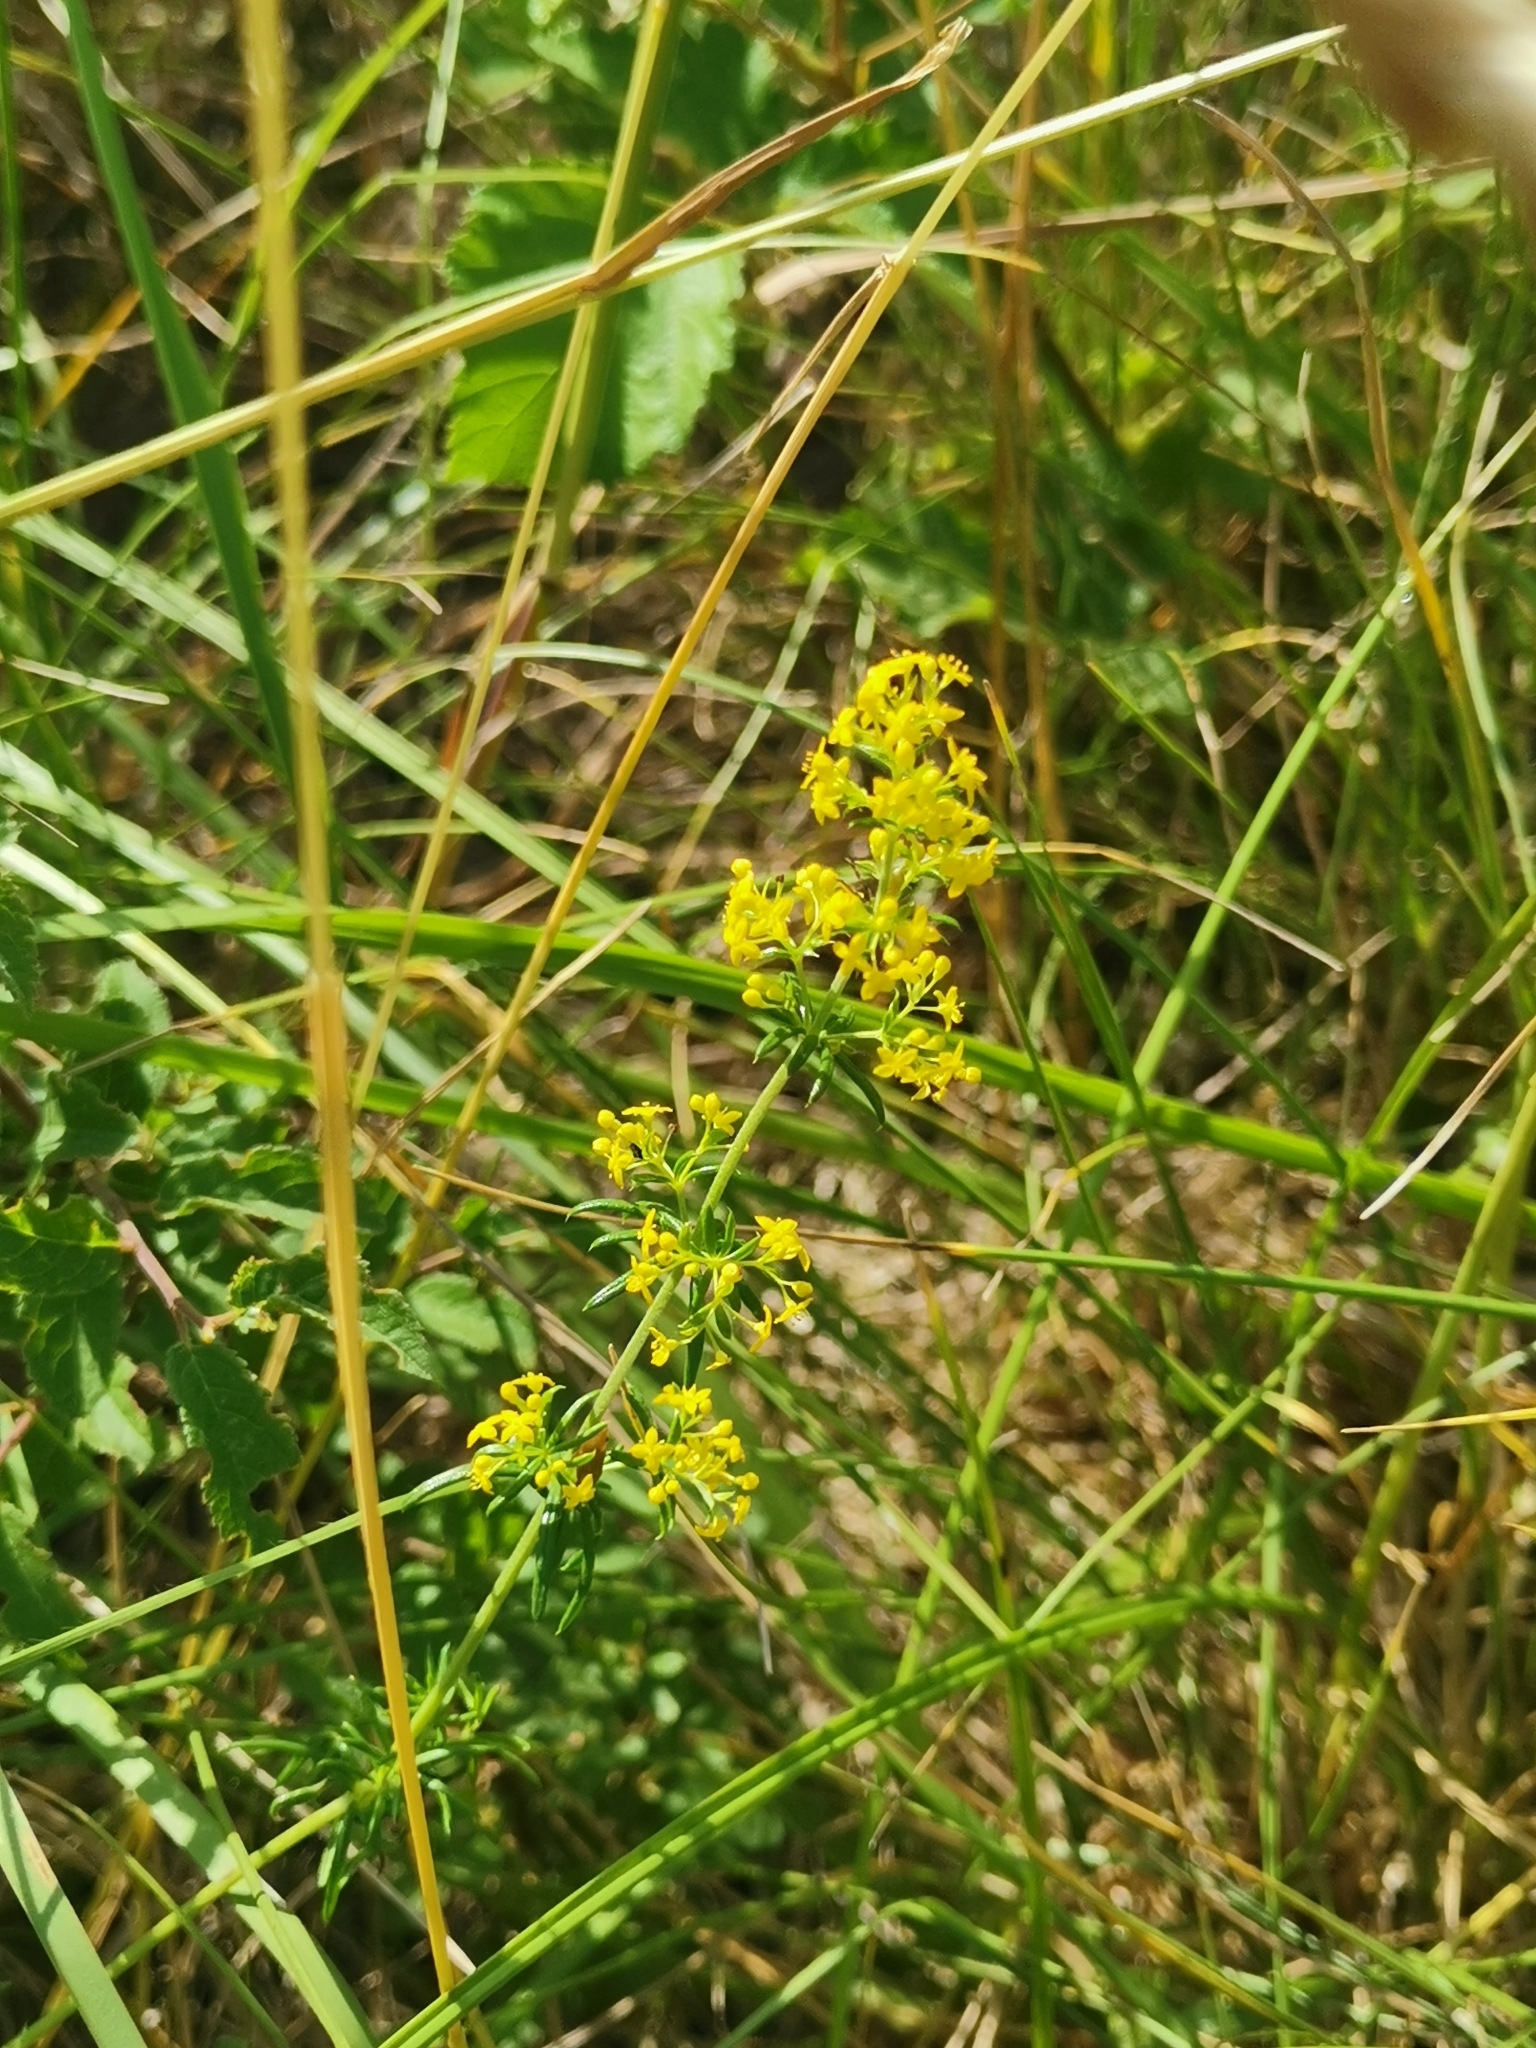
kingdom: Plantae
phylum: Tracheophyta
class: Magnoliopsida
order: Gentianales
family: Rubiaceae
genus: Galium
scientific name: Galium verum
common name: Lady's bedstraw
